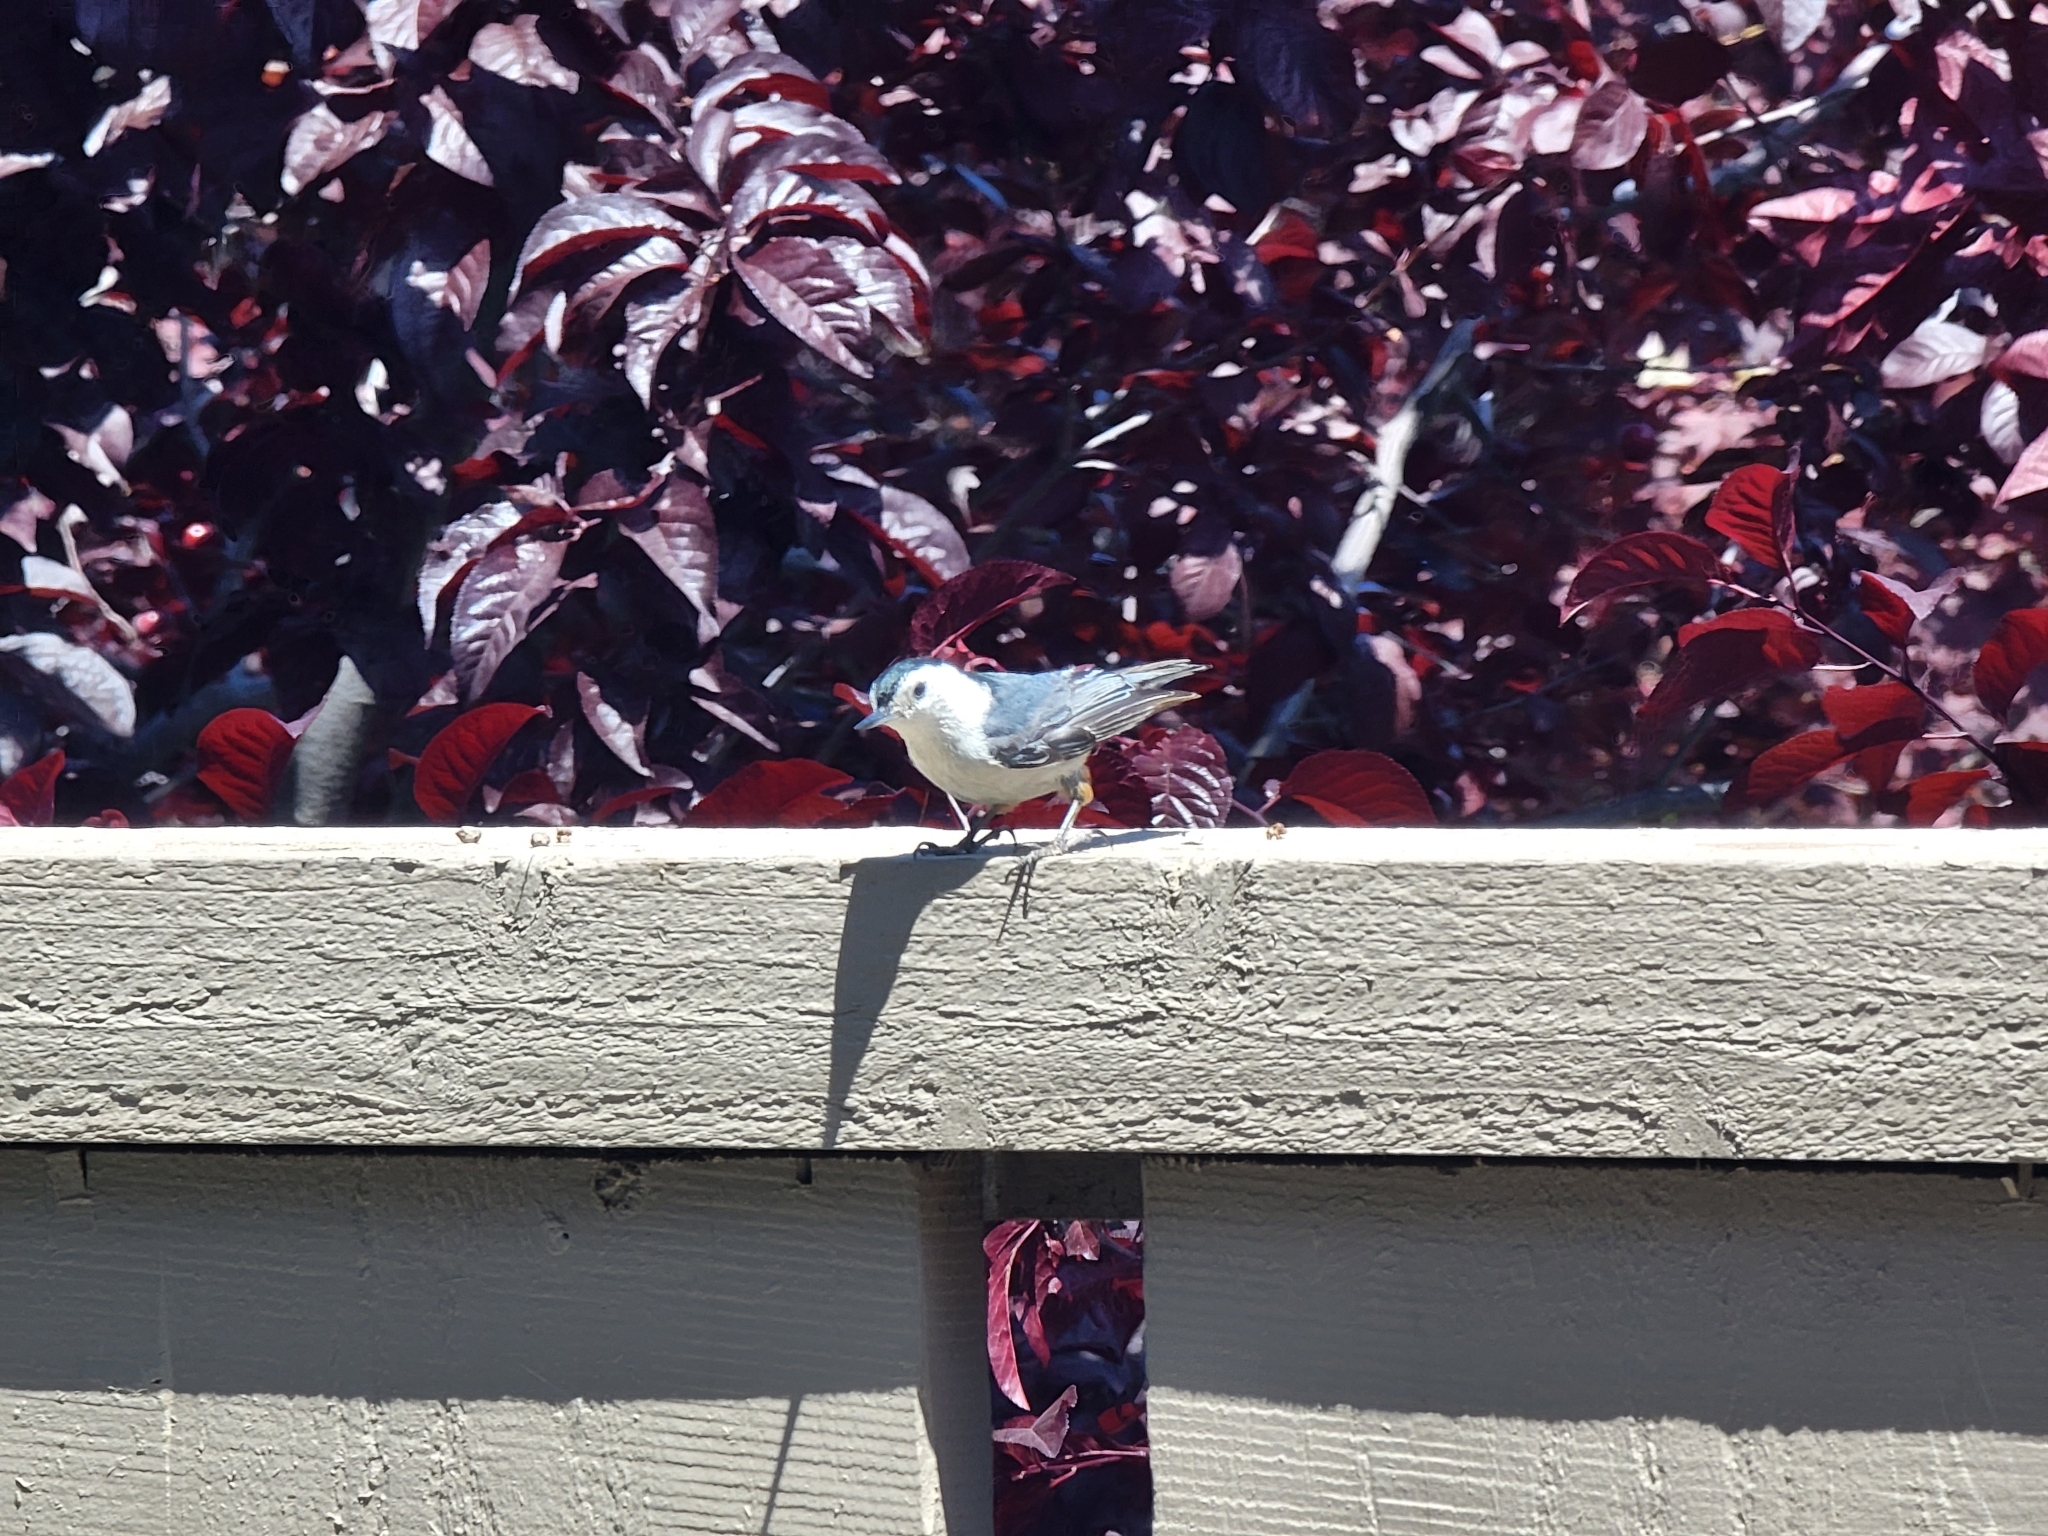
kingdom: Animalia
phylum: Chordata
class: Aves
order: Passeriformes
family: Sittidae
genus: Sitta
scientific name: Sitta carolinensis
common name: White-breasted nuthatch
